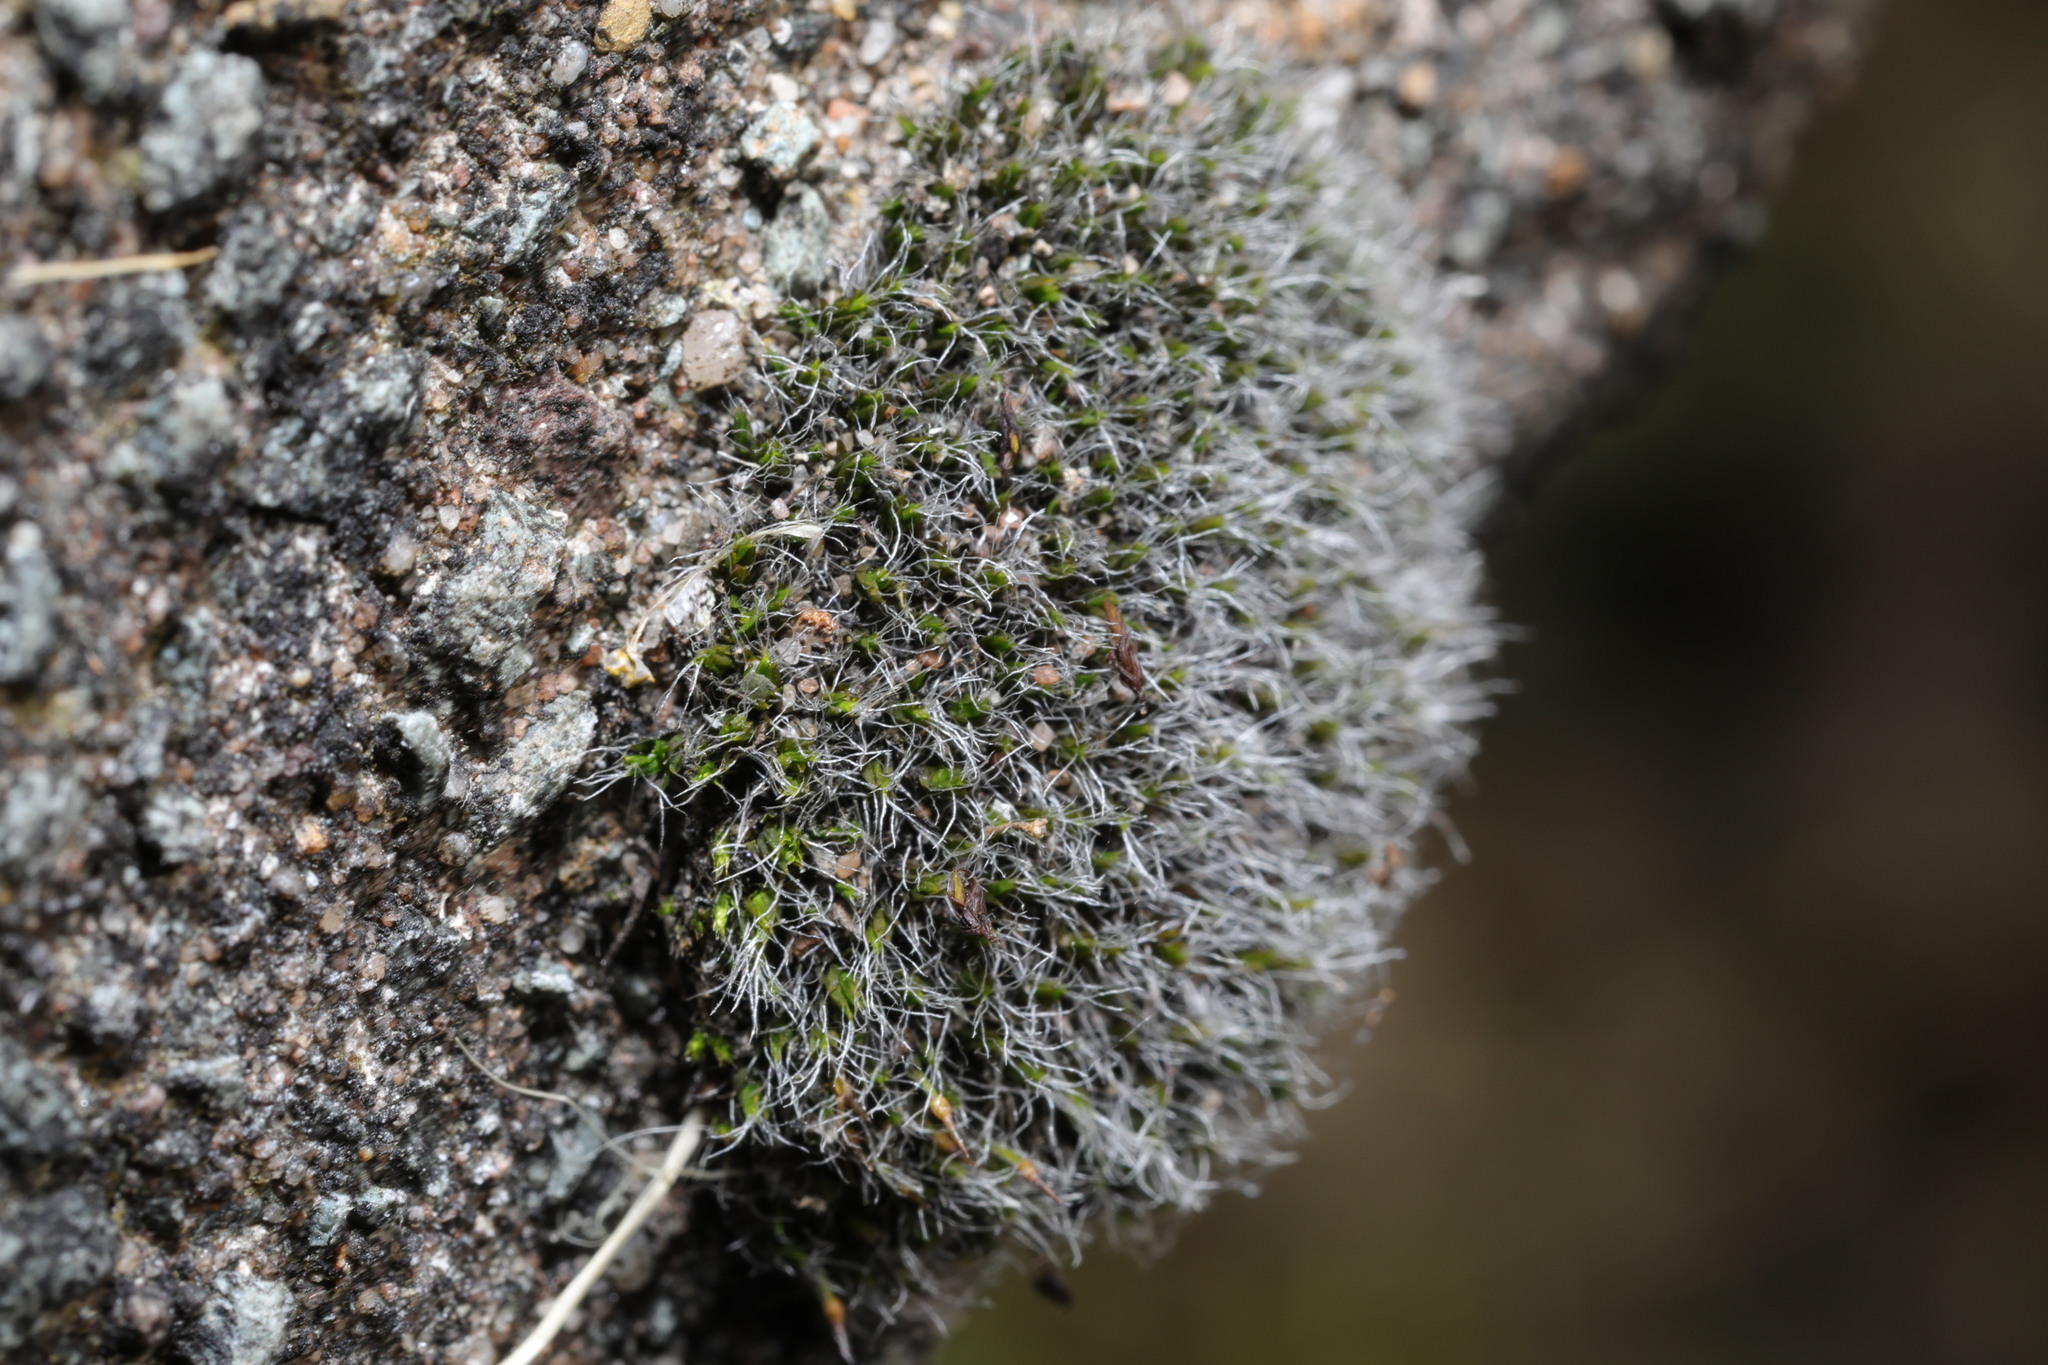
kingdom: Plantae
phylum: Bryophyta
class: Bryopsida
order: Grimmiales
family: Grimmiaceae
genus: Grimmia
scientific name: Grimmia pulvinata
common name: Grey-cushioned grimmia
